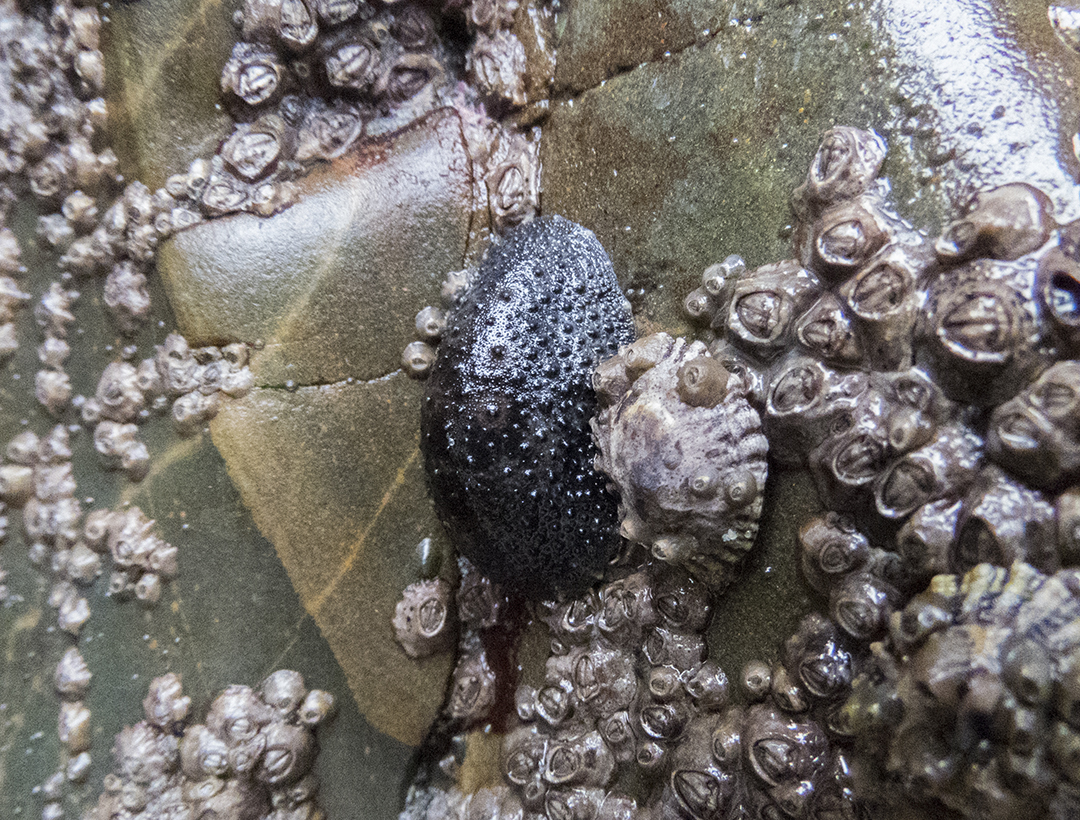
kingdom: Animalia
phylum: Mollusca
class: Gastropoda
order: Systellommatophora
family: Onchidiidae
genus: Onchidella
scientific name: Onchidella nigricans
